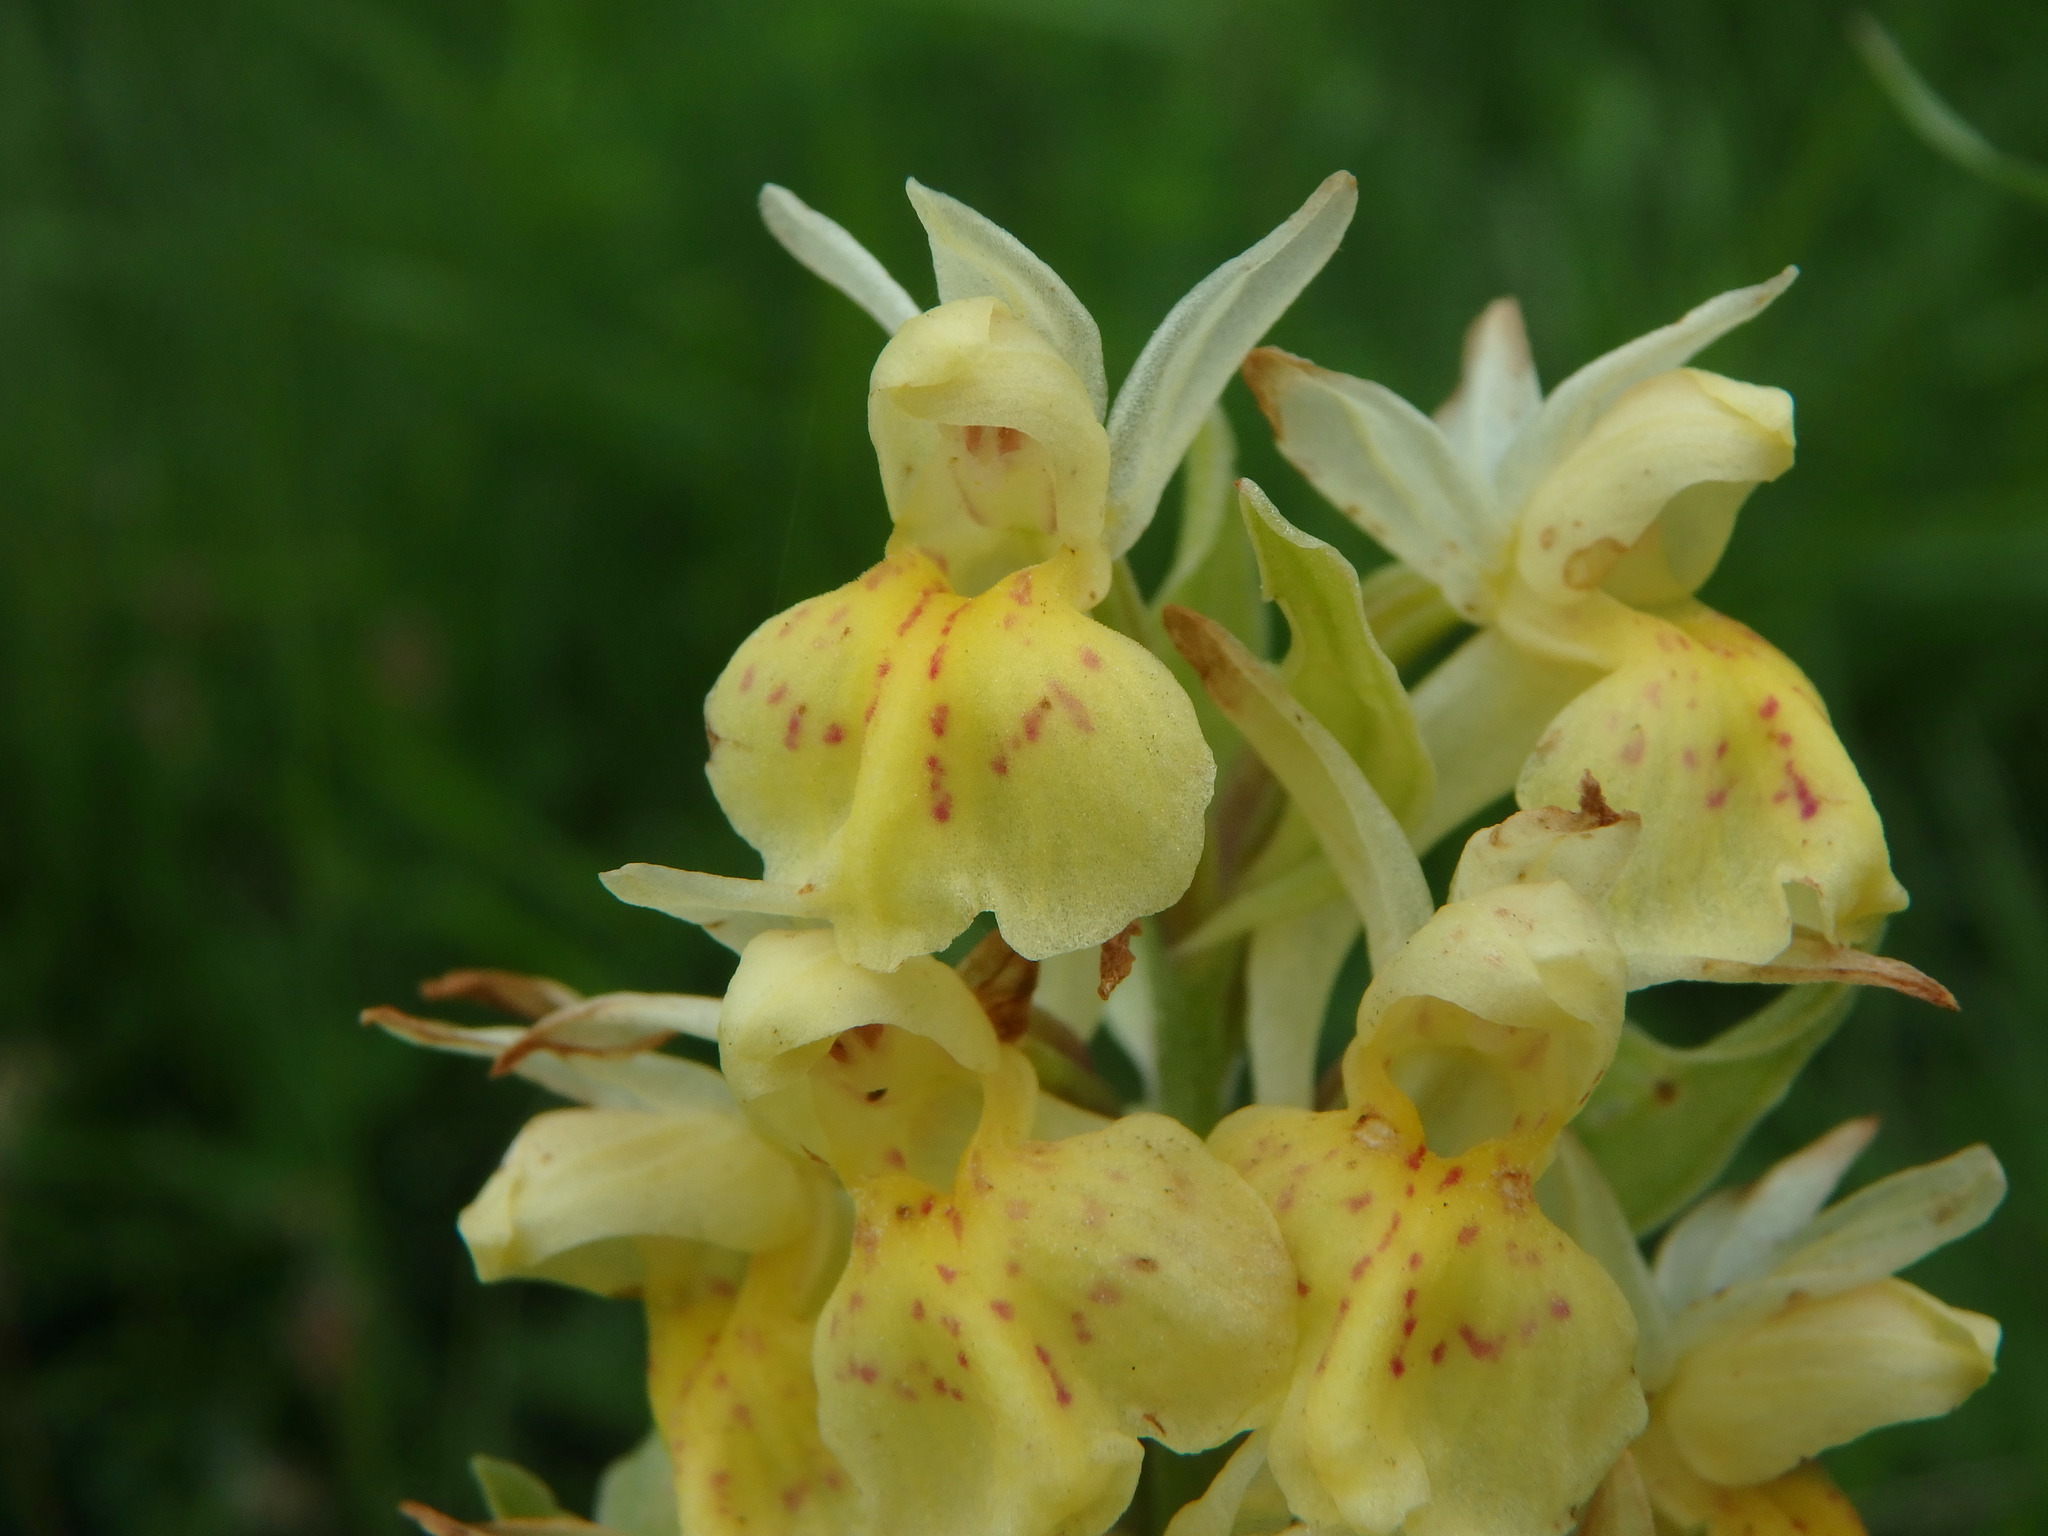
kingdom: Plantae
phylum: Tracheophyta
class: Liliopsida
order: Asparagales
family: Orchidaceae
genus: Dactylorhiza
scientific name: Dactylorhiza sambucina
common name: Elder-flowered orchid
